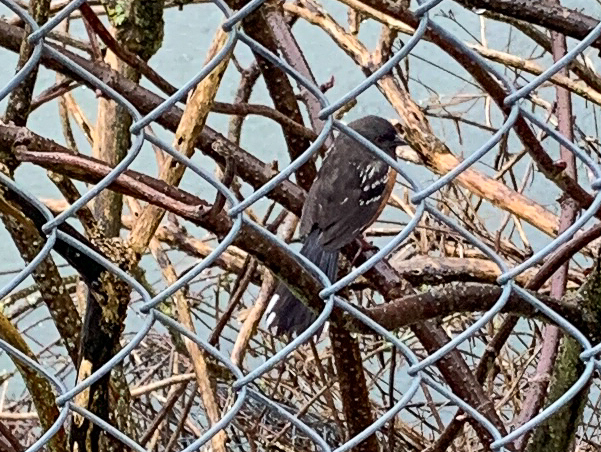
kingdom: Animalia
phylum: Chordata
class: Aves
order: Passeriformes
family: Passerellidae
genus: Pipilo
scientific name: Pipilo maculatus
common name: Spotted towhee
